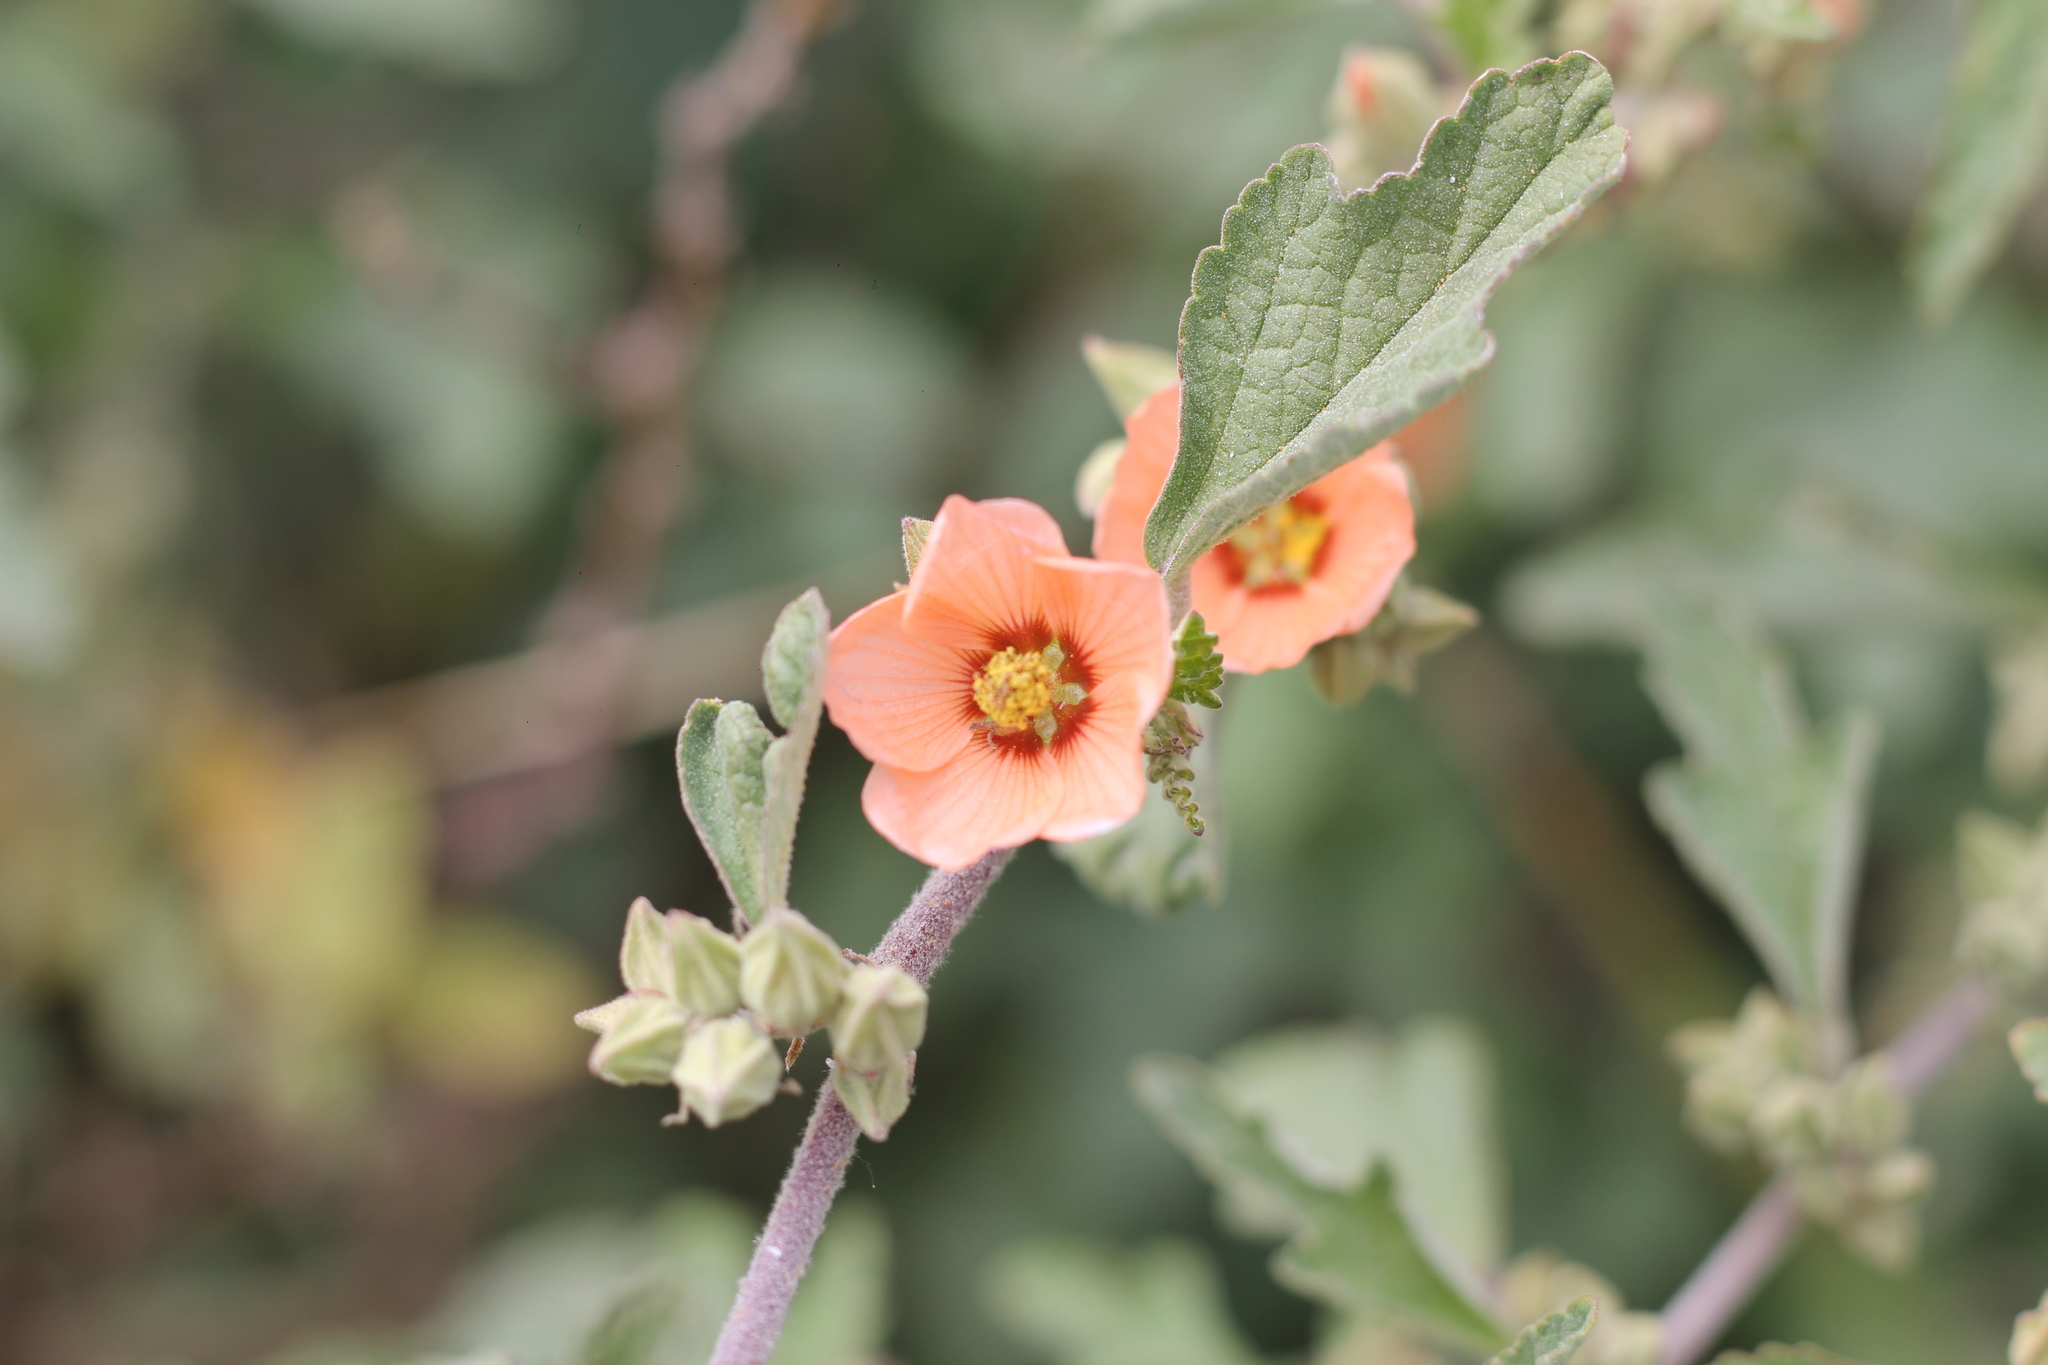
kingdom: Plantae
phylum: Tracheophyta
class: Magnoliopsida
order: Malvales
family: Malvaceae
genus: Sphaeralcea
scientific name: Sphaeralcea bonariensis
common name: Latin globemallow
